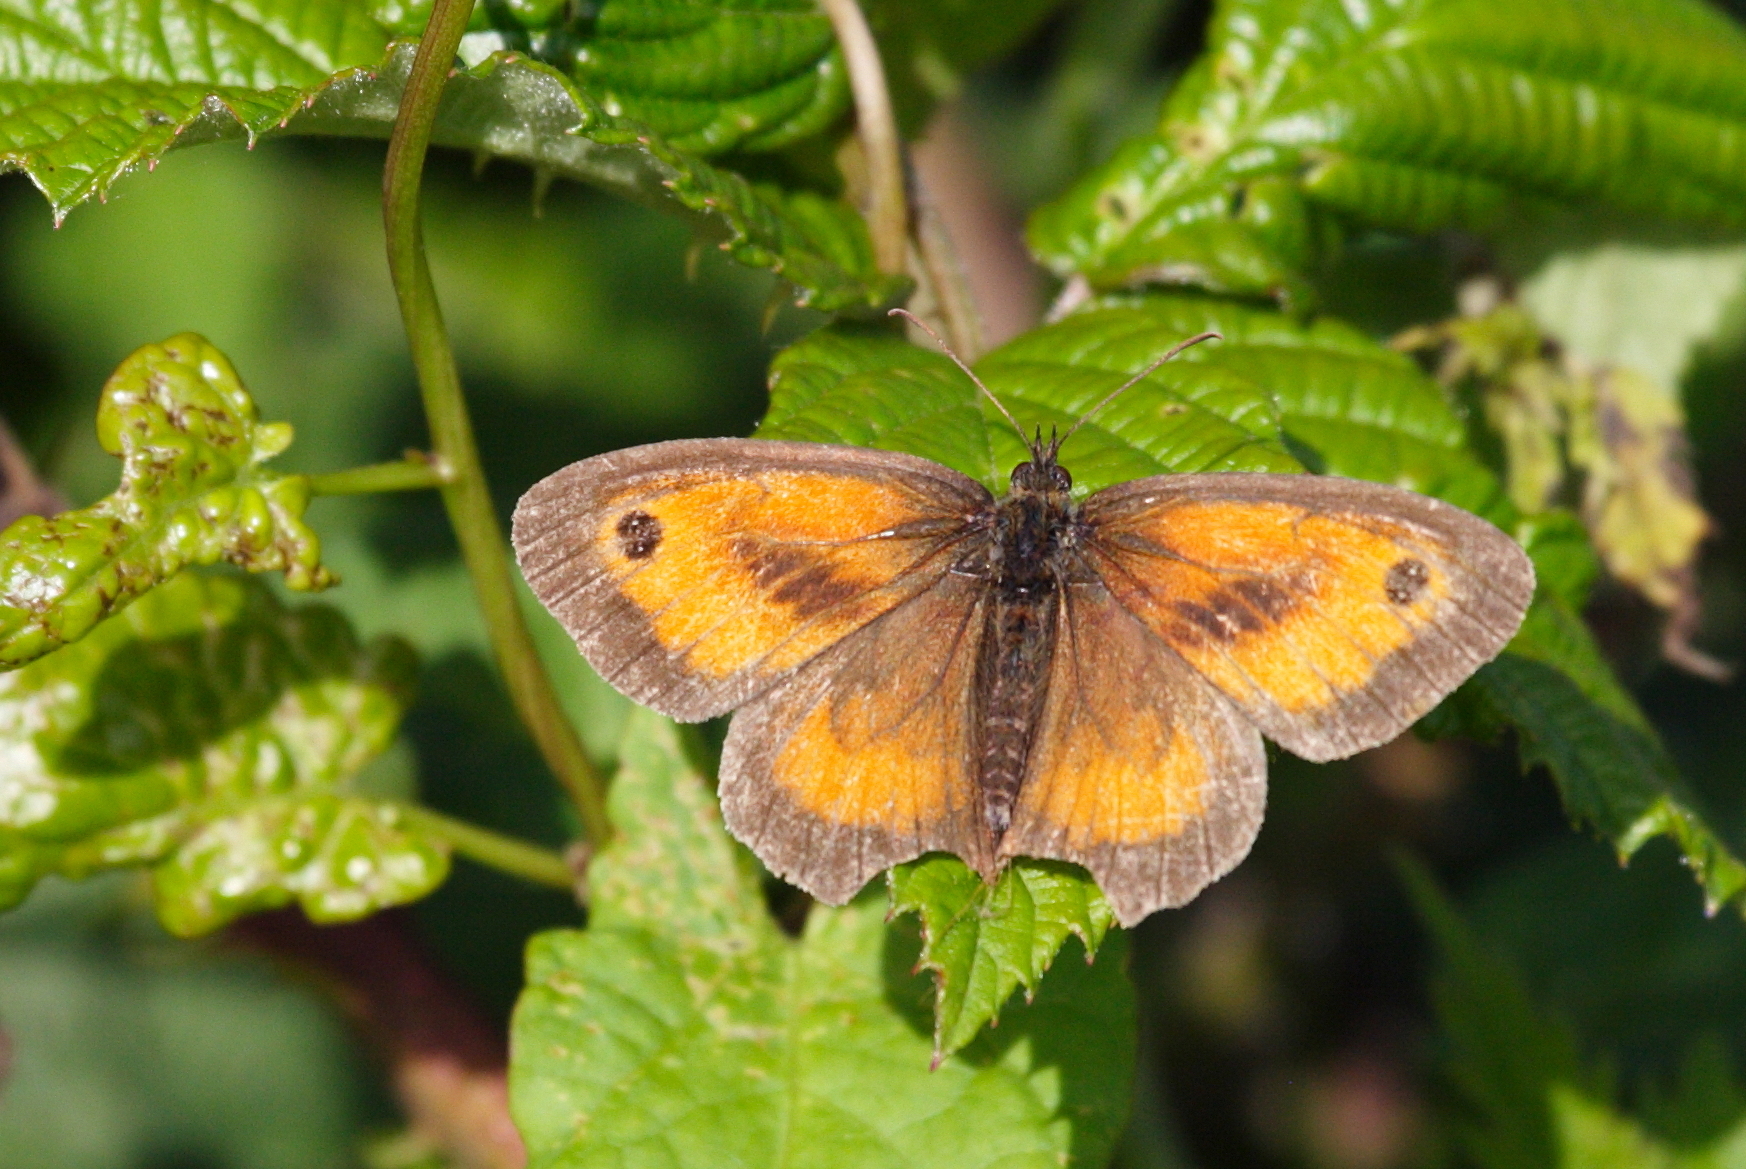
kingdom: Animalia
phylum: Arthropoda
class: Insecta
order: Lepidoptera
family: Nymphalidae
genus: Pyronia
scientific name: Pyronia tithonus
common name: Gatekeeper
